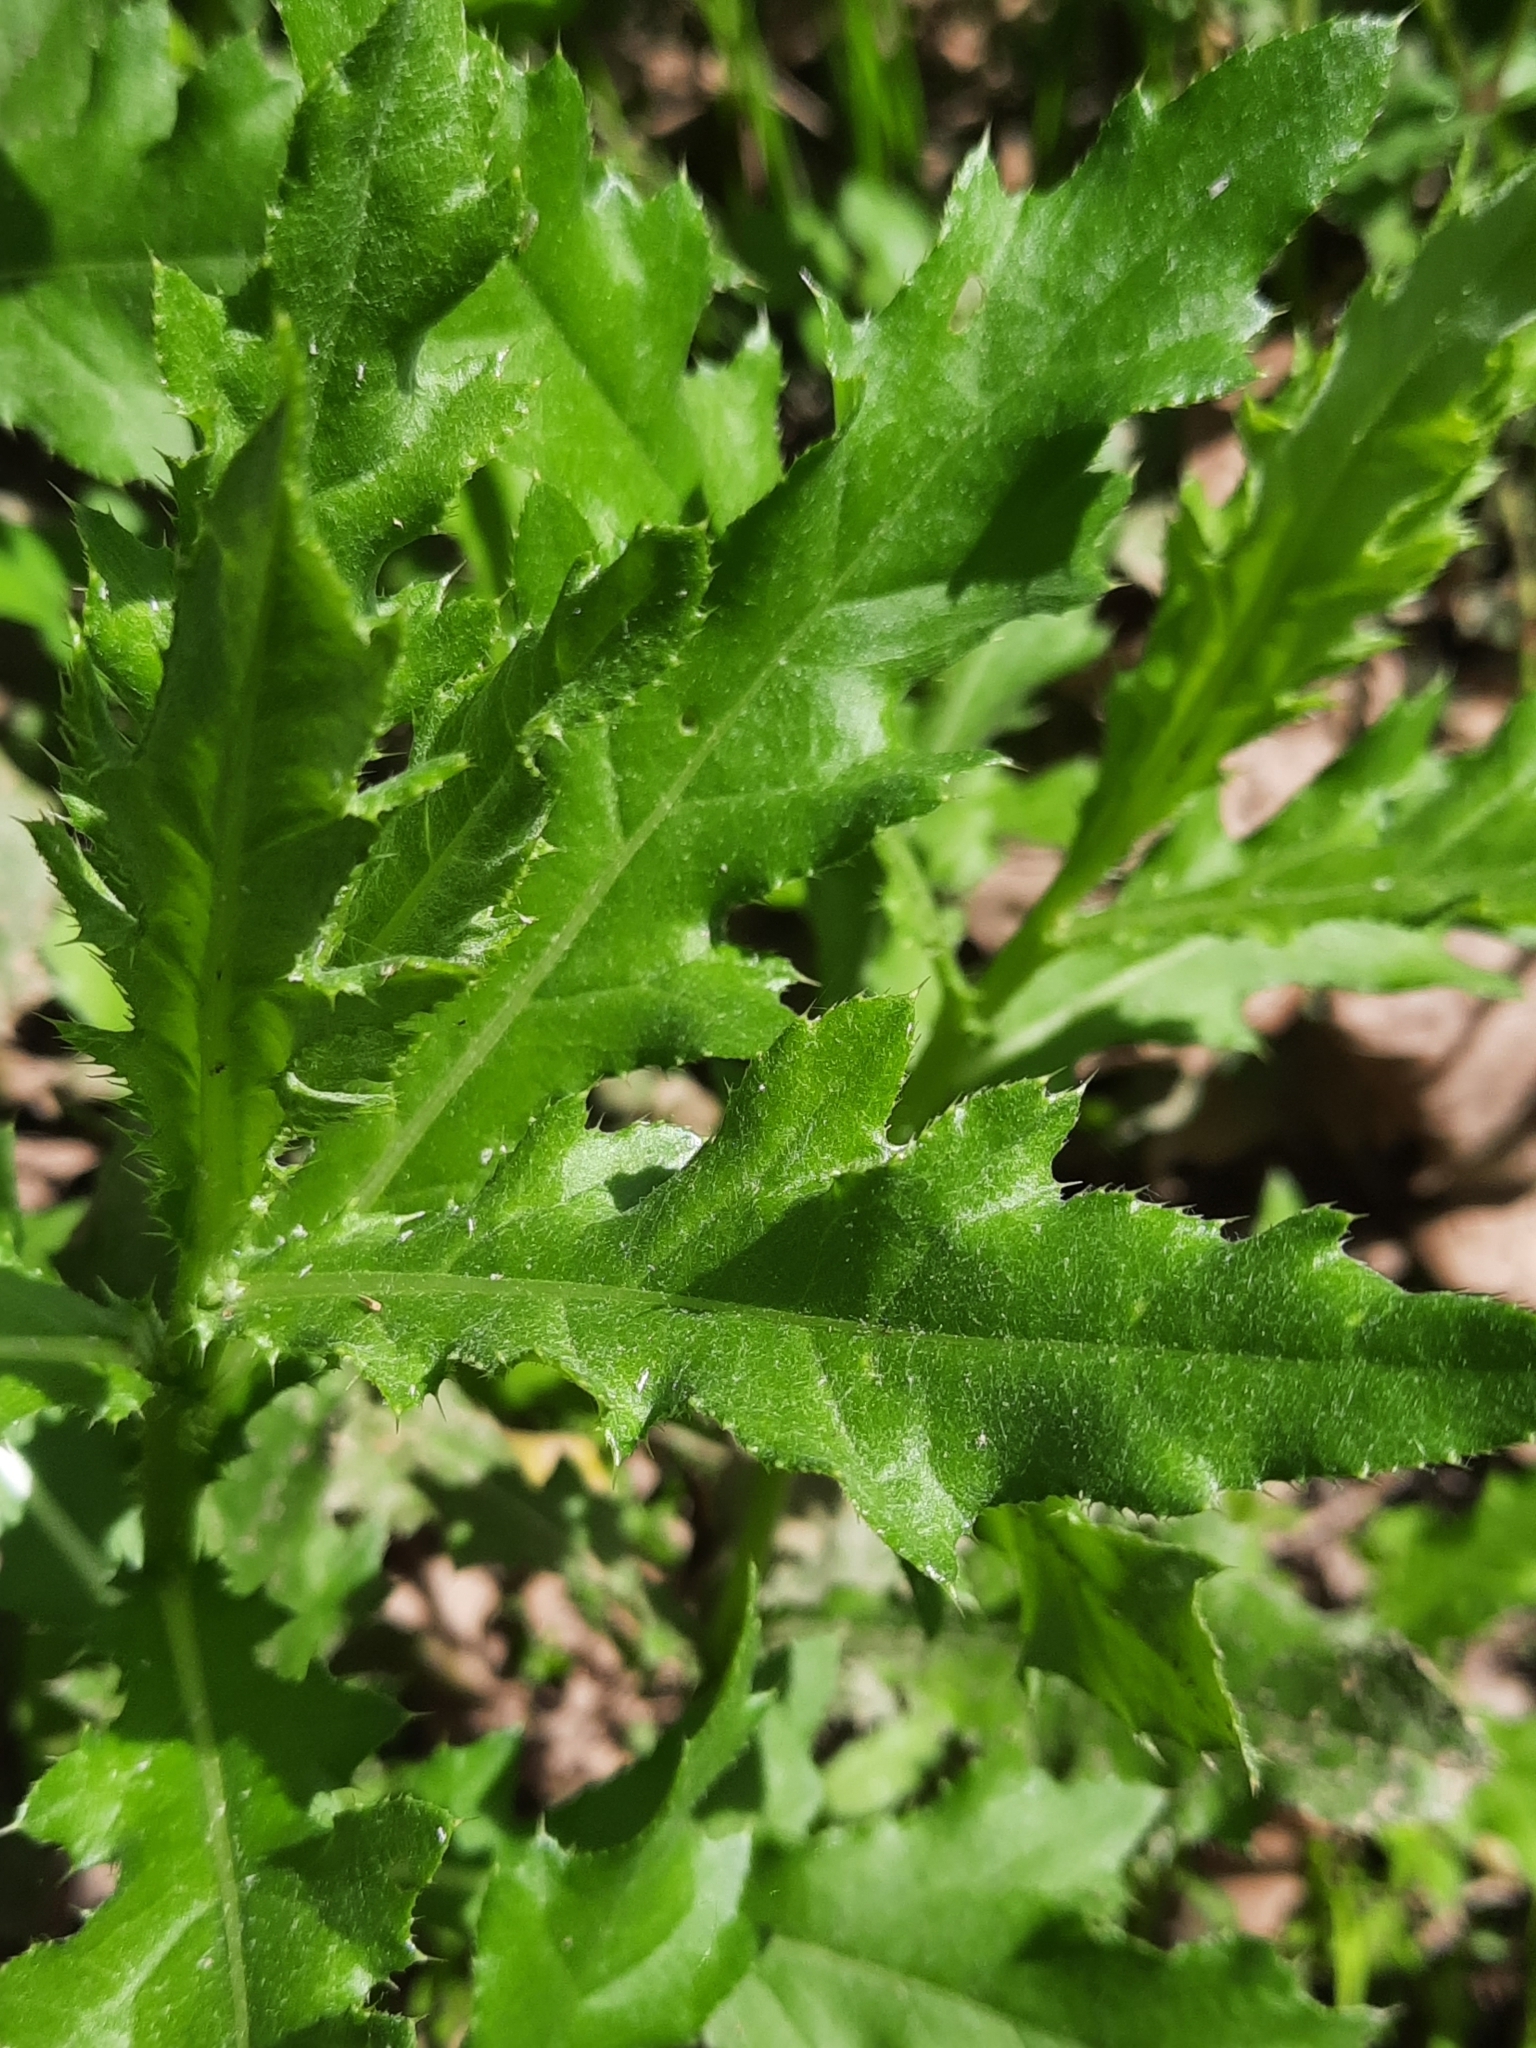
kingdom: Plantae
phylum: Tracheophyta
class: Magnoliopsida
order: Asterales
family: Asteraceae
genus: Cirsium
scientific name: Cirsium arvense
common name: Creeping thistle
